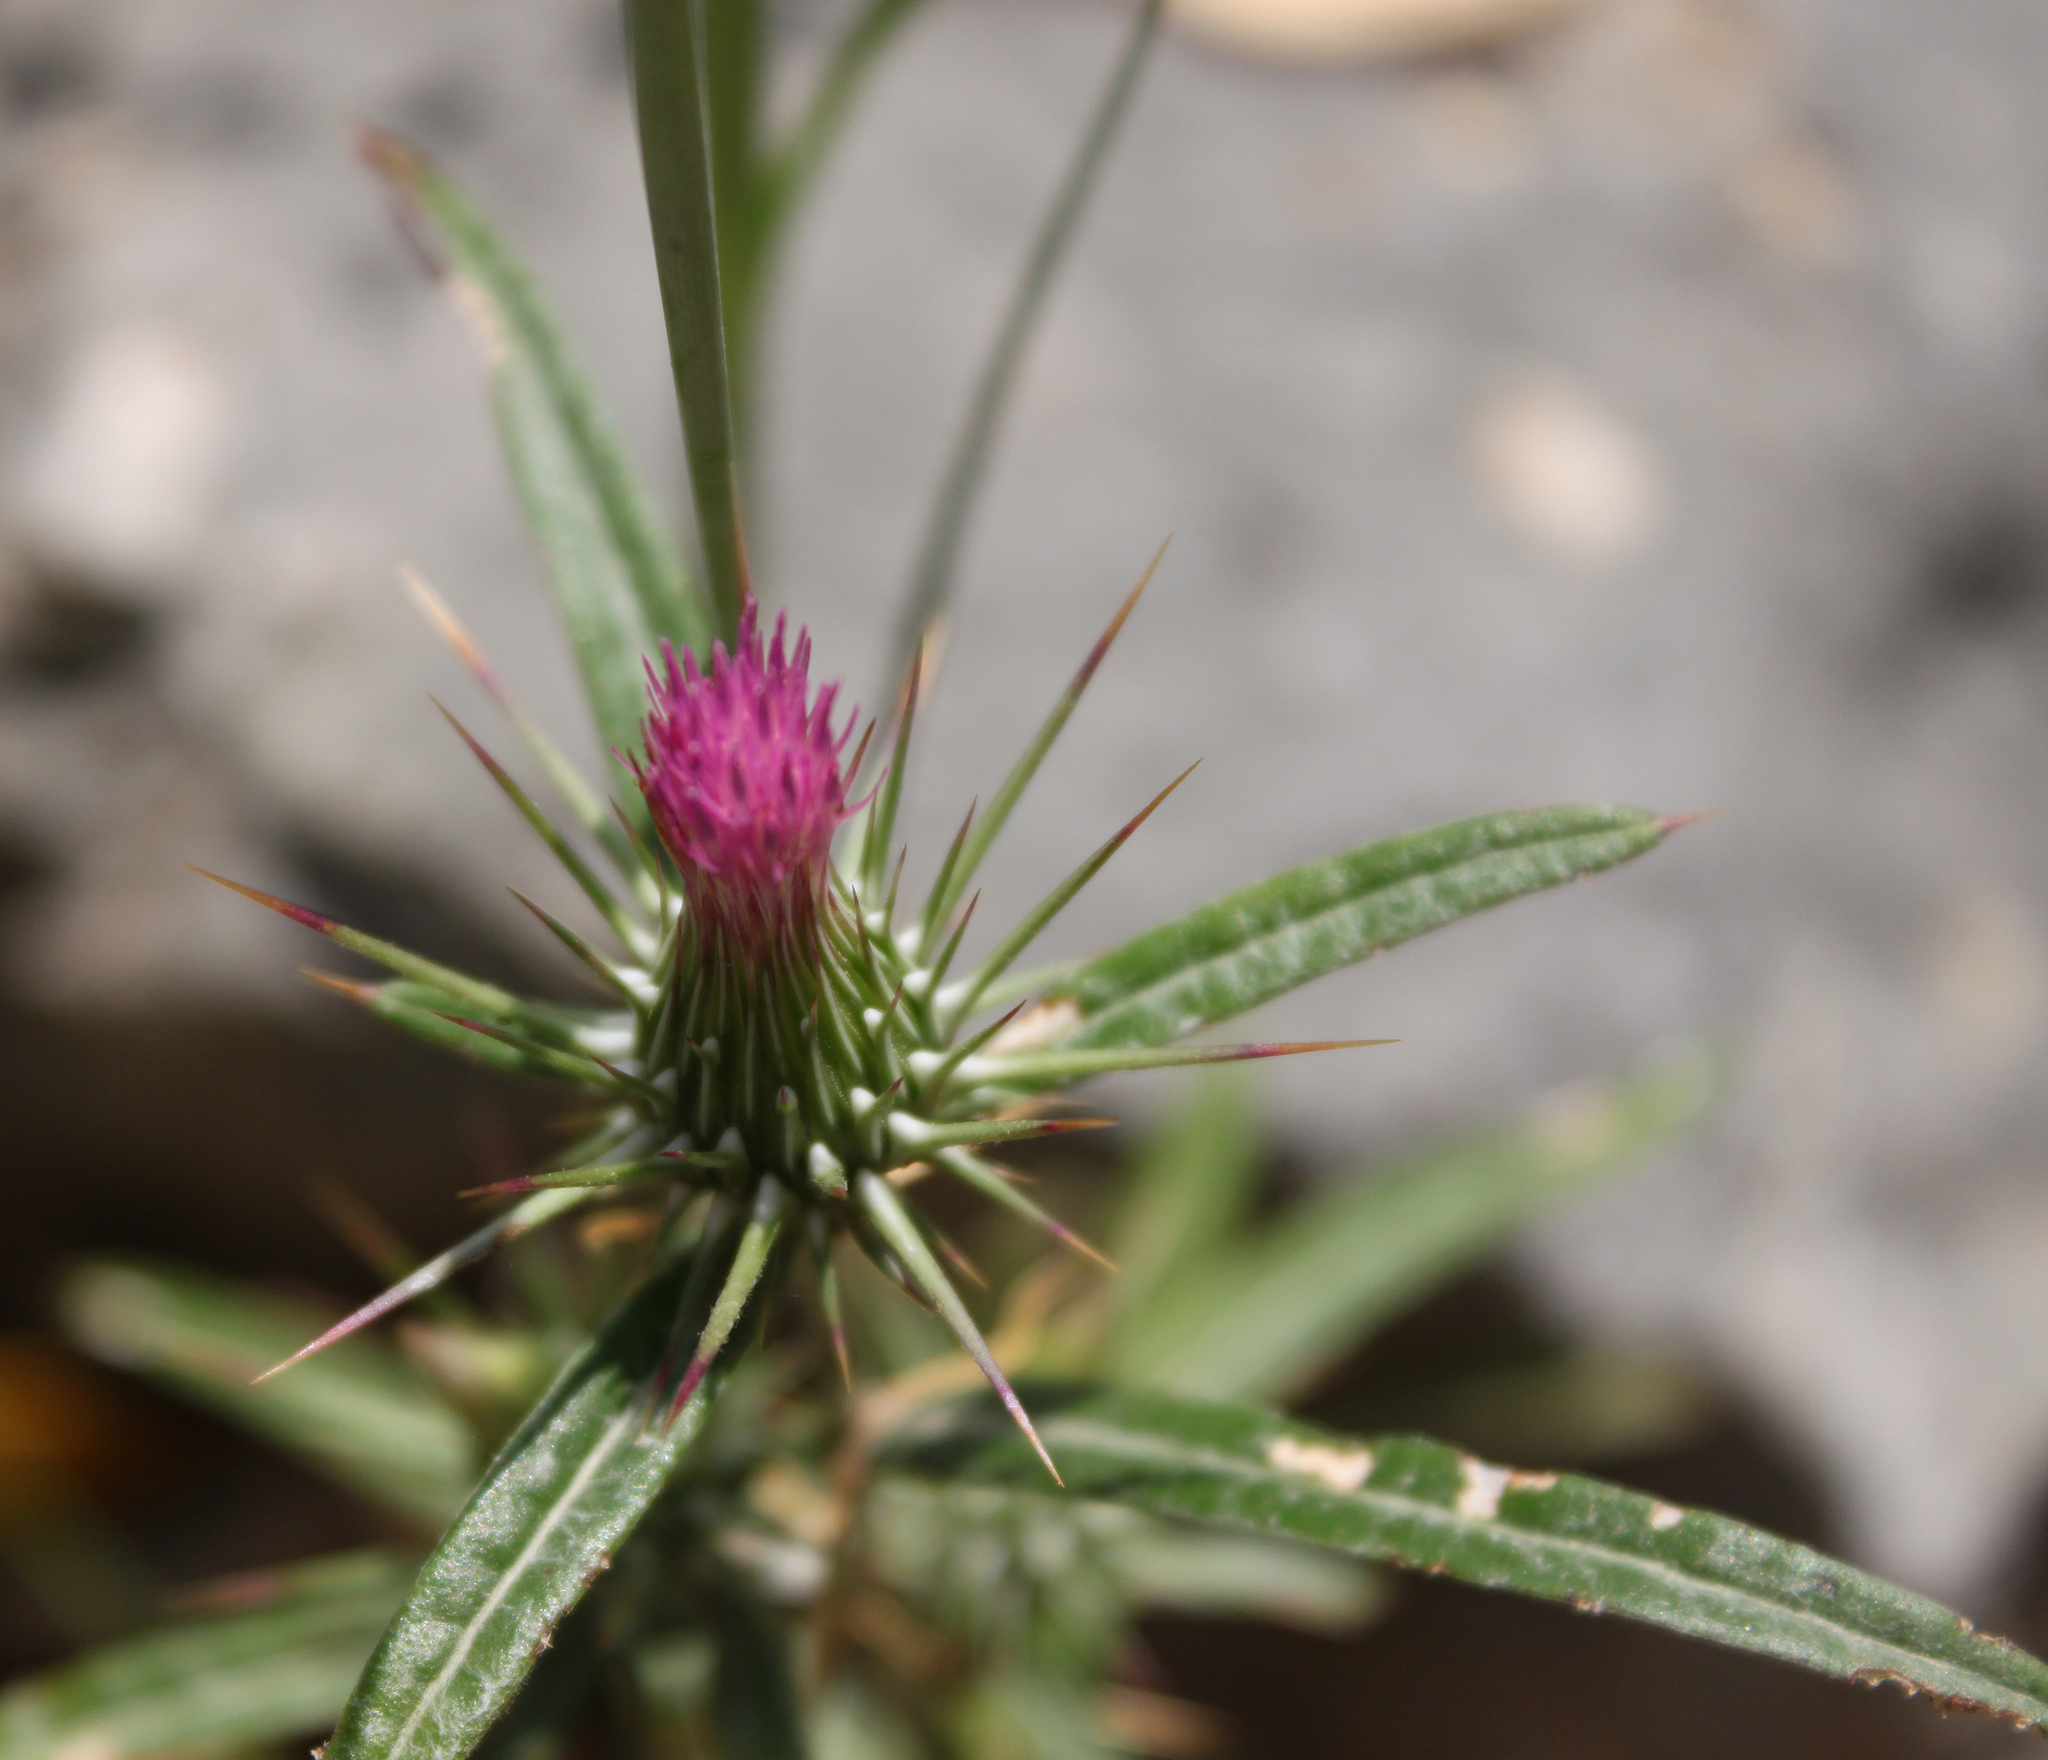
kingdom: Plantae
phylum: Tracheophyta
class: Magnoliopsida
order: Asterales
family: Asteraceae
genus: Ptilostemon
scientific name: Ptilostemon stellatus
